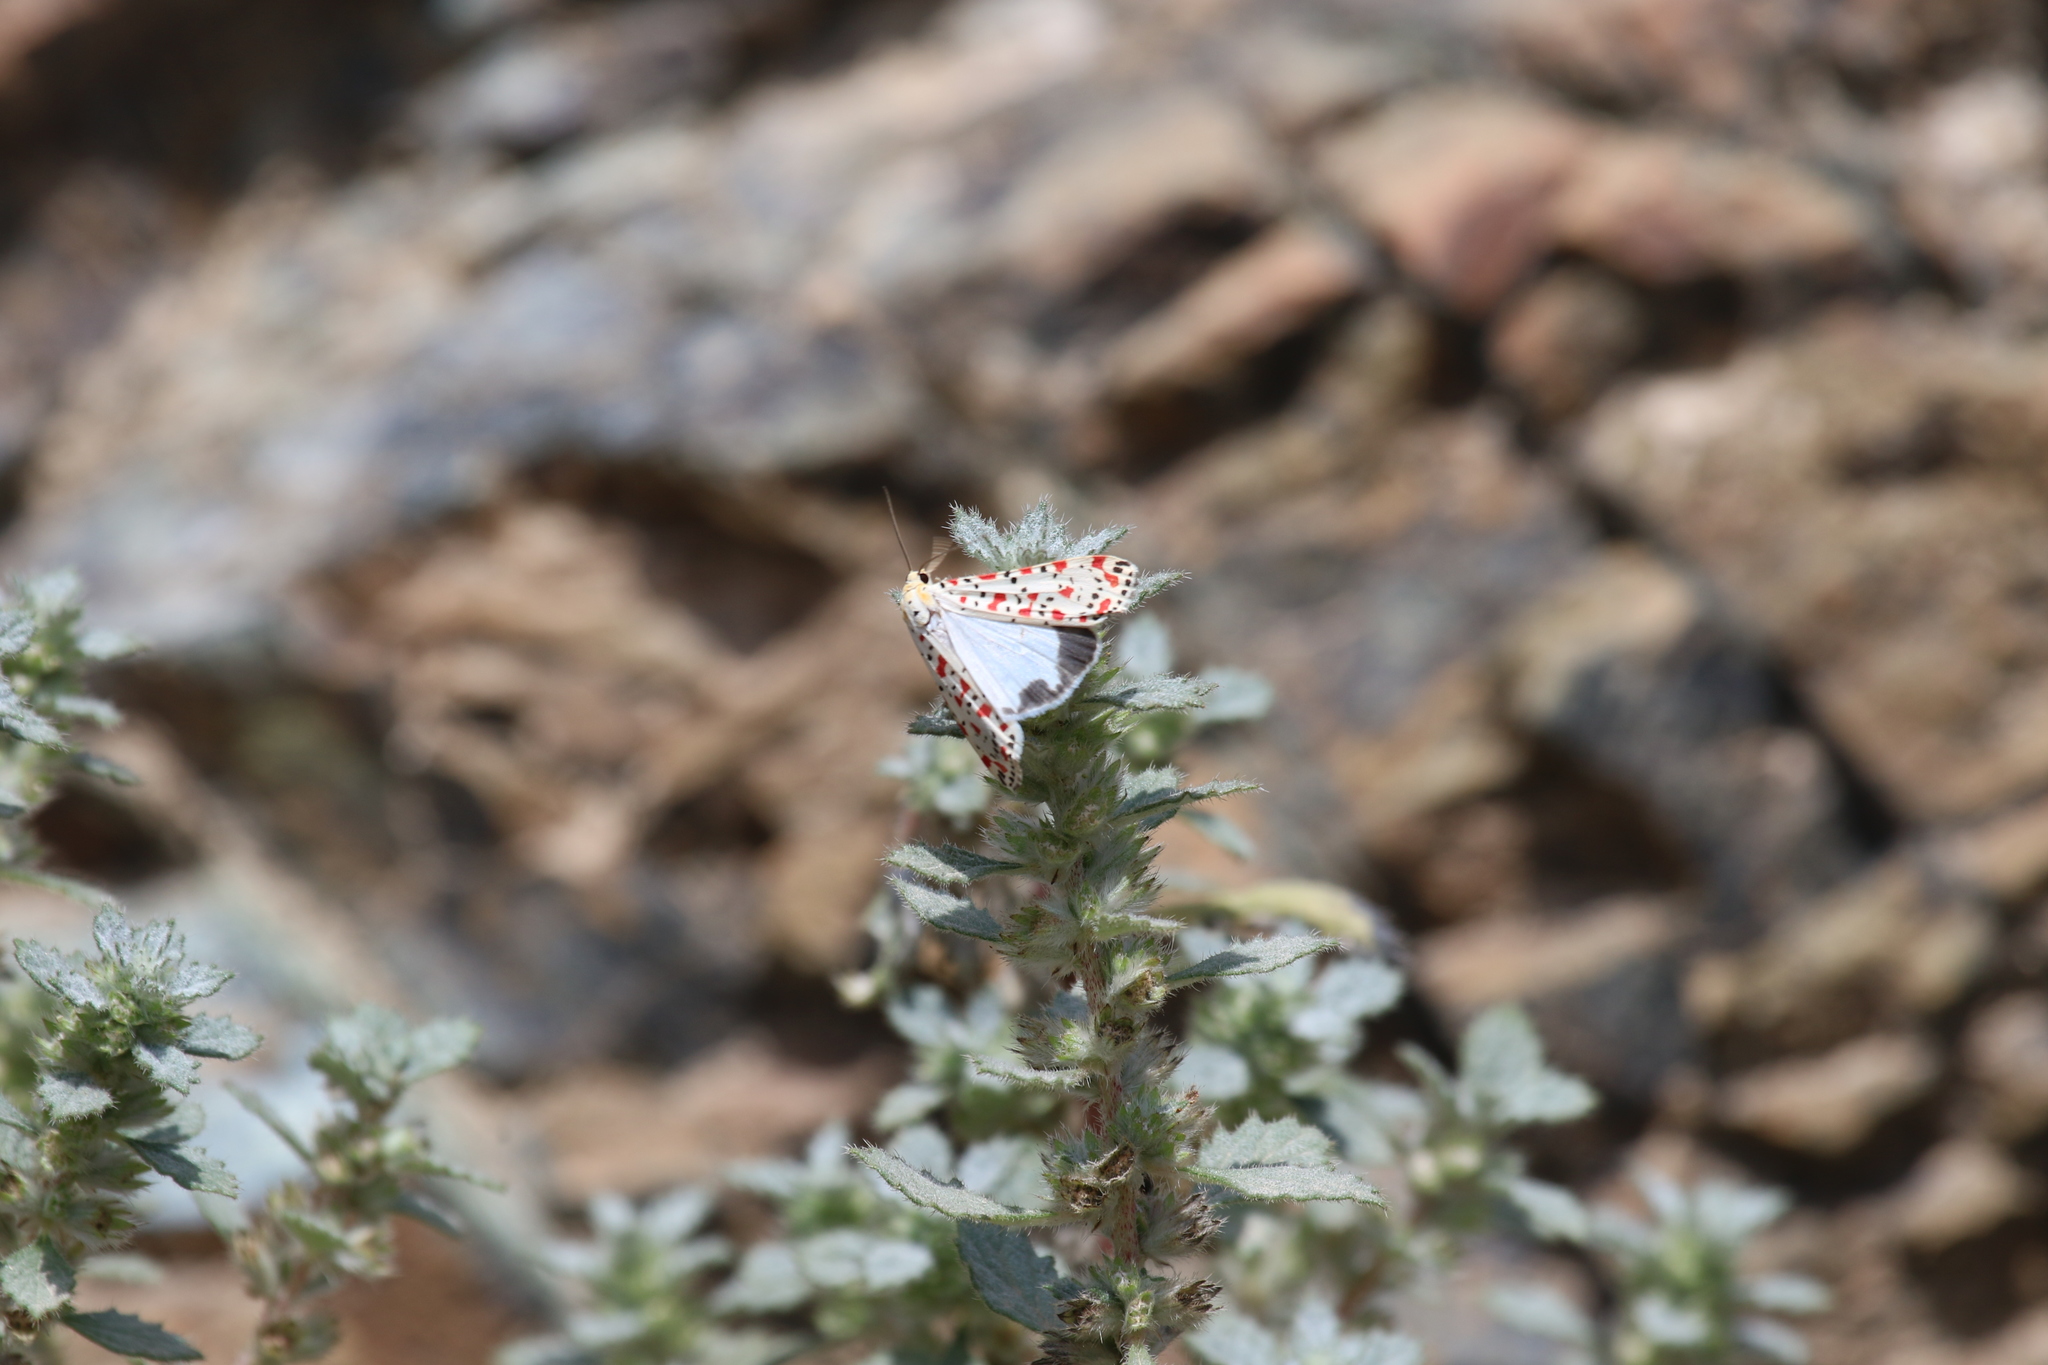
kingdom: Animalia
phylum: Arthropoda
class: Insecta
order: Lepidoptera
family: Erebidae
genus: Utetheisa
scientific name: Utetheisa pulchella
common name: Crimson speckled
